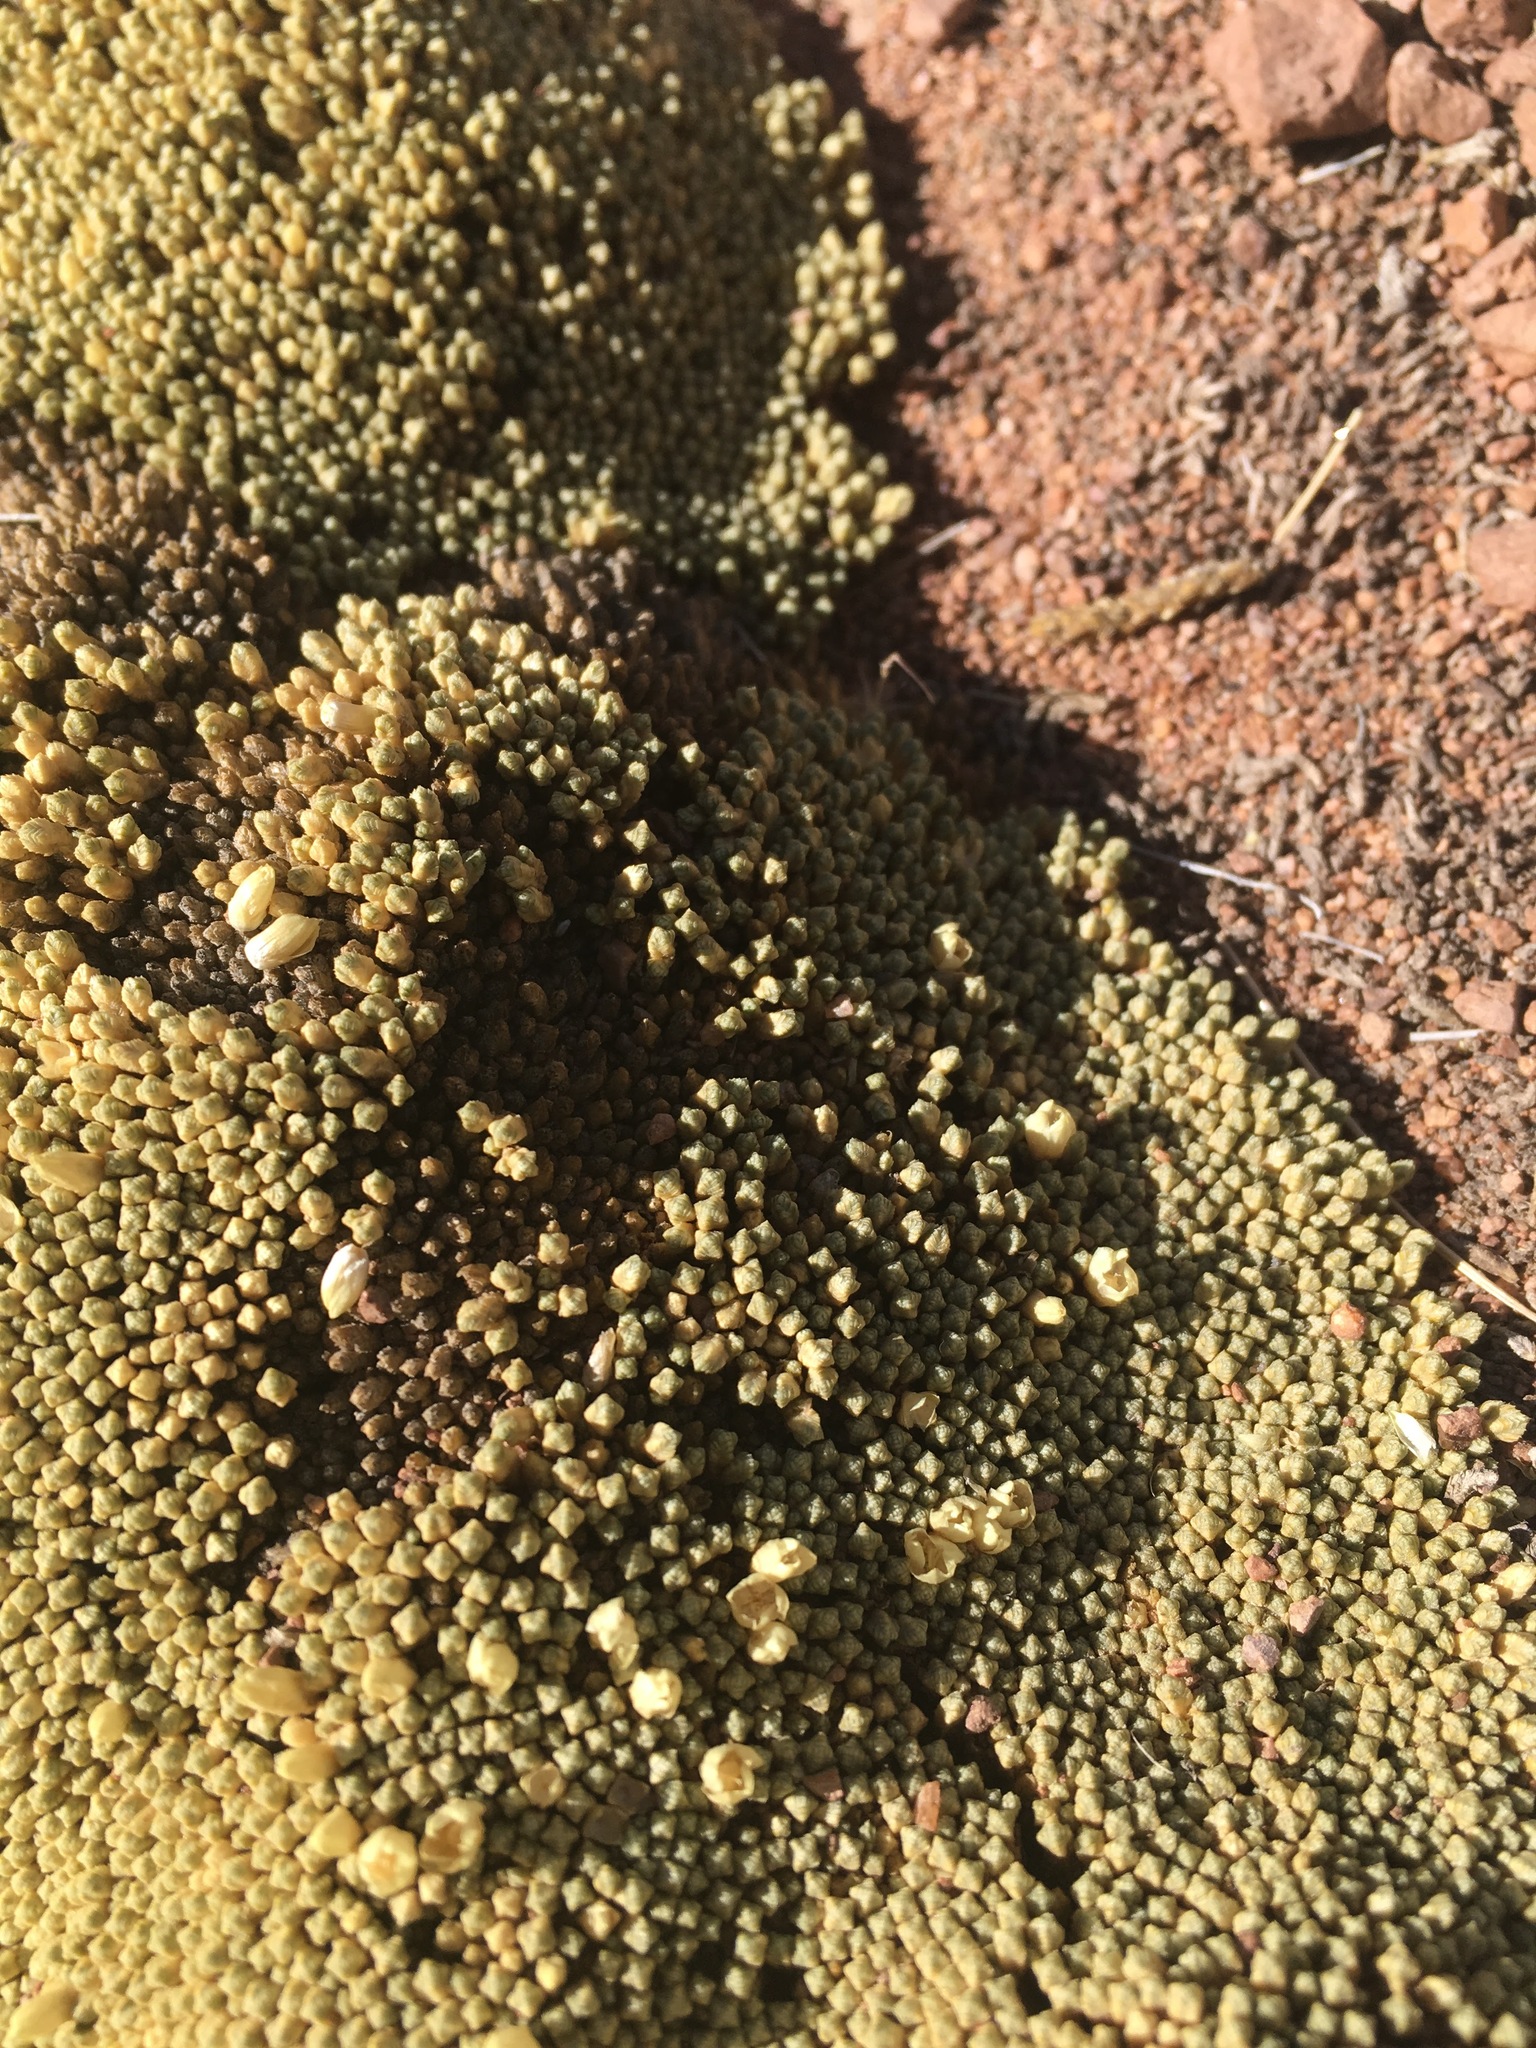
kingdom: Plantae
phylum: Tracheophyta
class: Magnoliopsida
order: Caryophyllales
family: Caryophyllaceae
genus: Pycnophyllum
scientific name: Pycnophyllum bryoides
